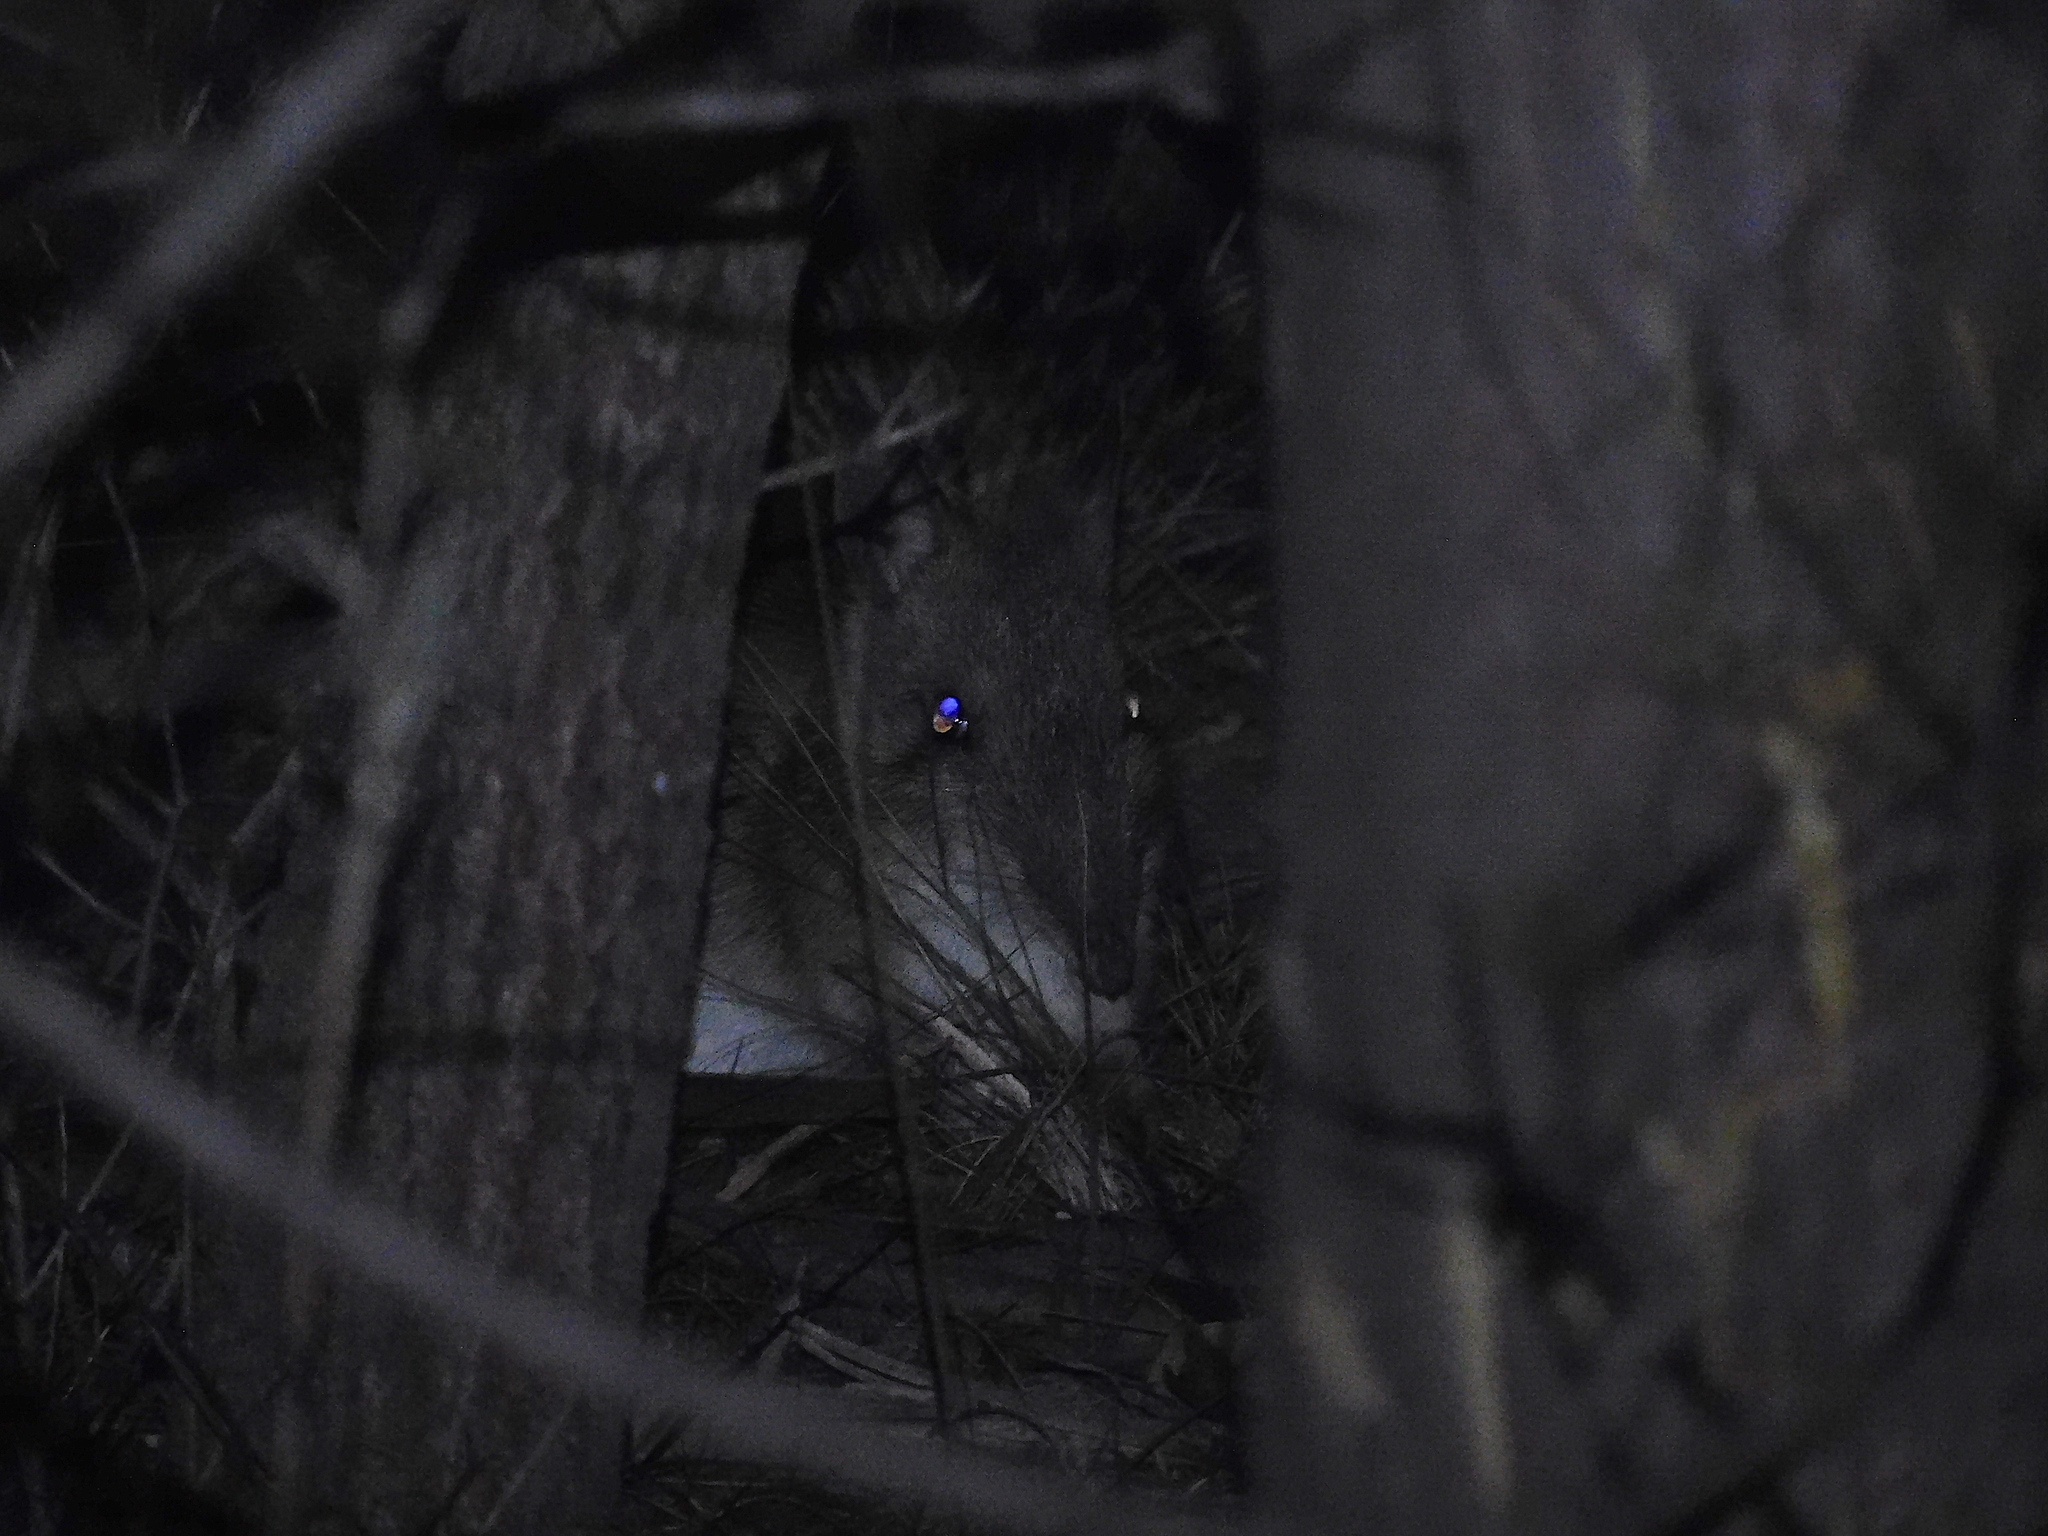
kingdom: Animalia
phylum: Chordata
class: Mammalia
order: Peramelemorphia
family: Peramelidae
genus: Perameles
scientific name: Perameles gunnii
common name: Eastern barred bandicoot
